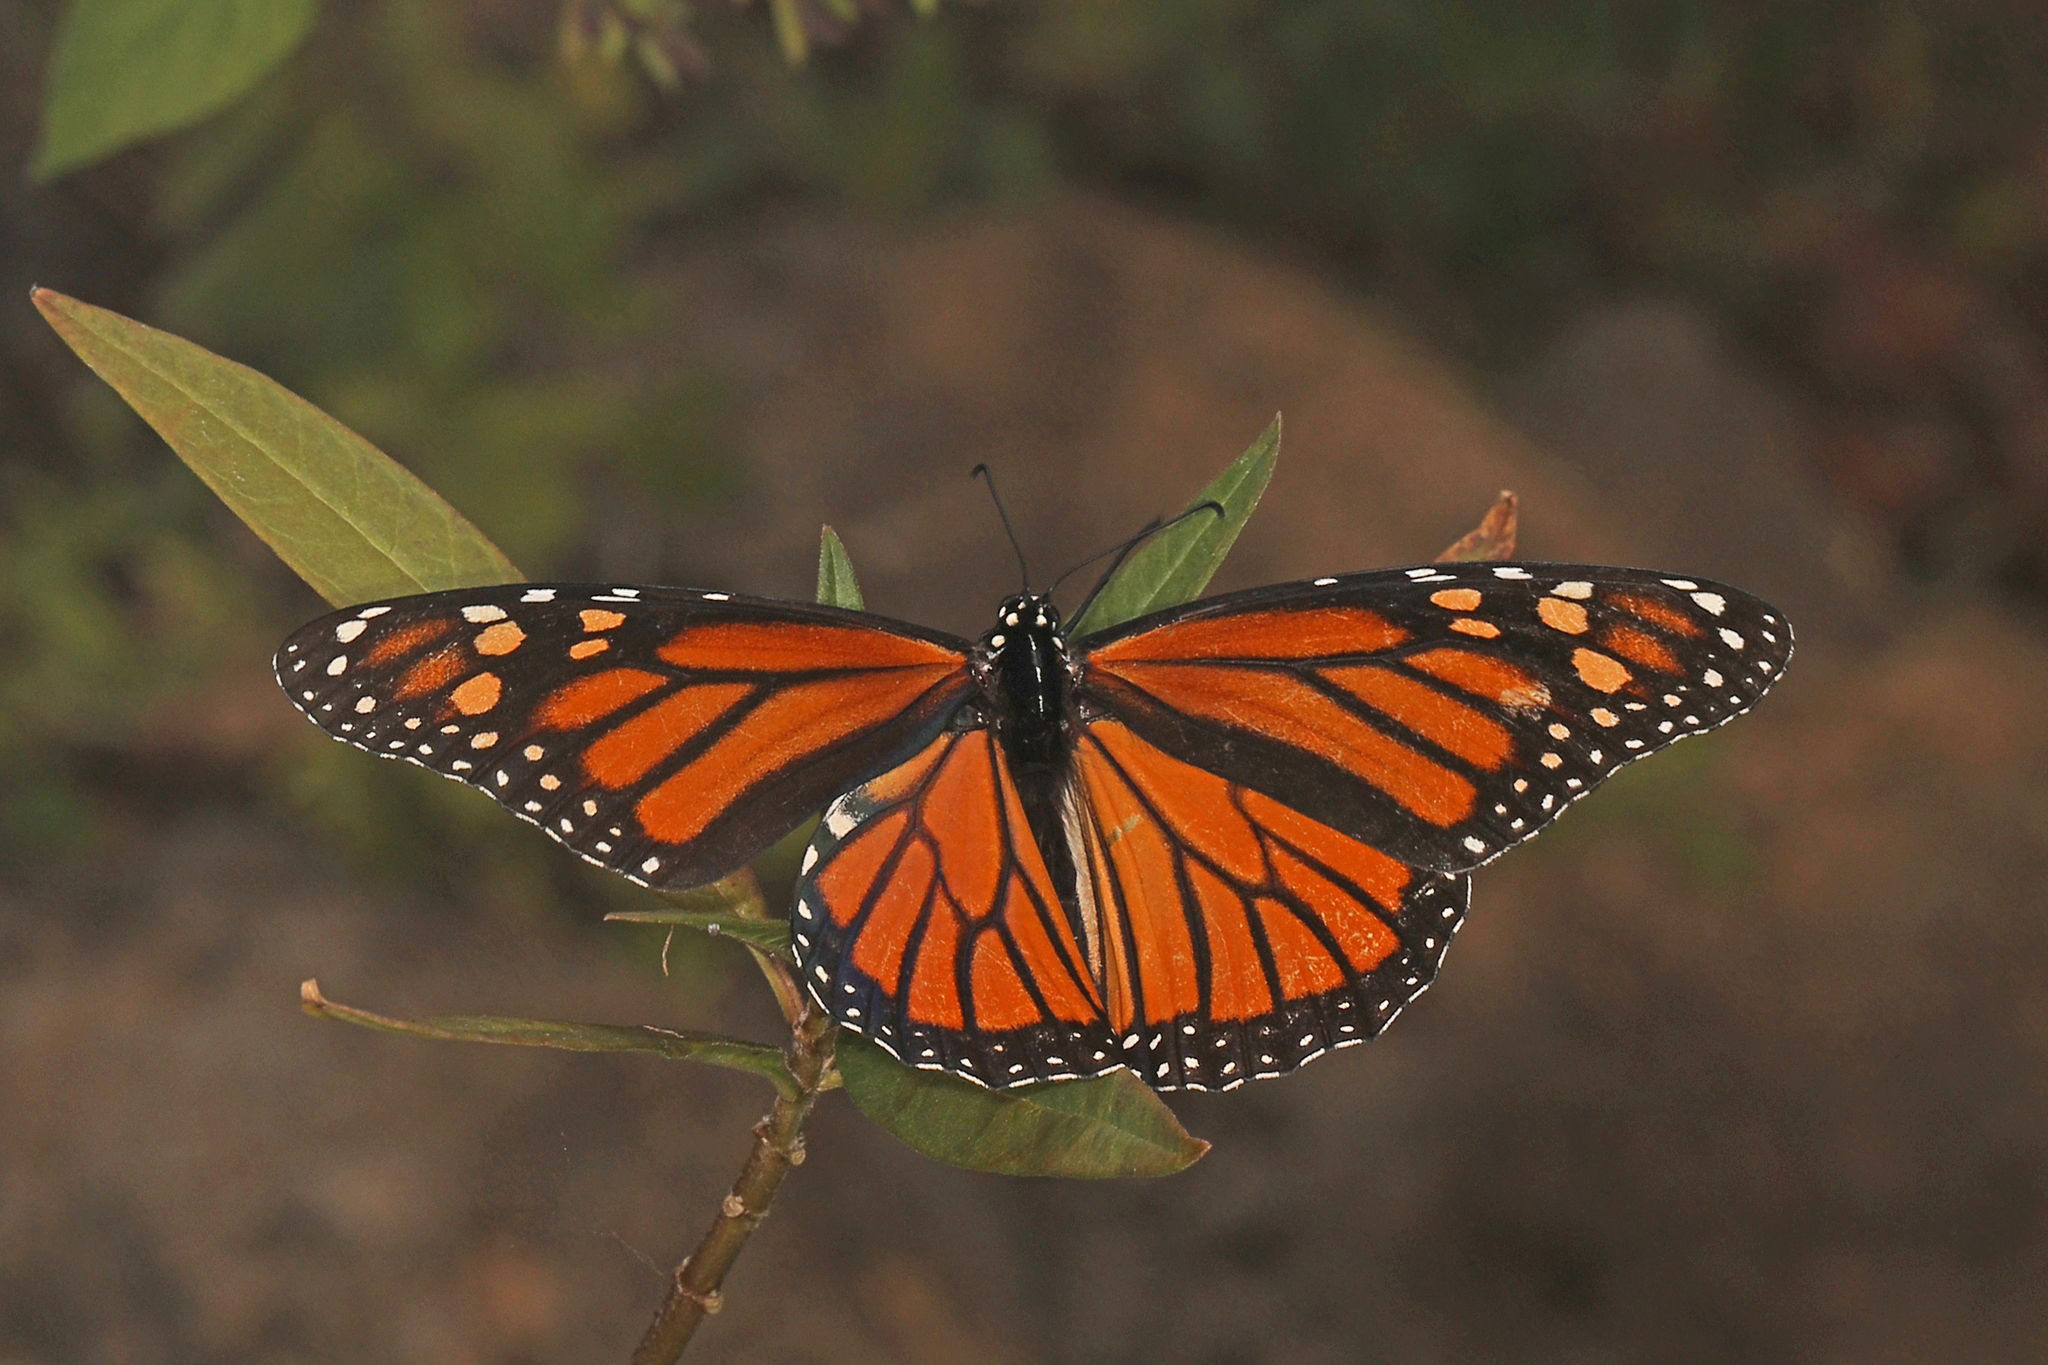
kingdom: Animalia
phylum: Arthropoda
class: Insecta
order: Lepidoptera
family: Nymphalidae
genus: Danaus
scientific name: Danaus plexippus
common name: Monarch
